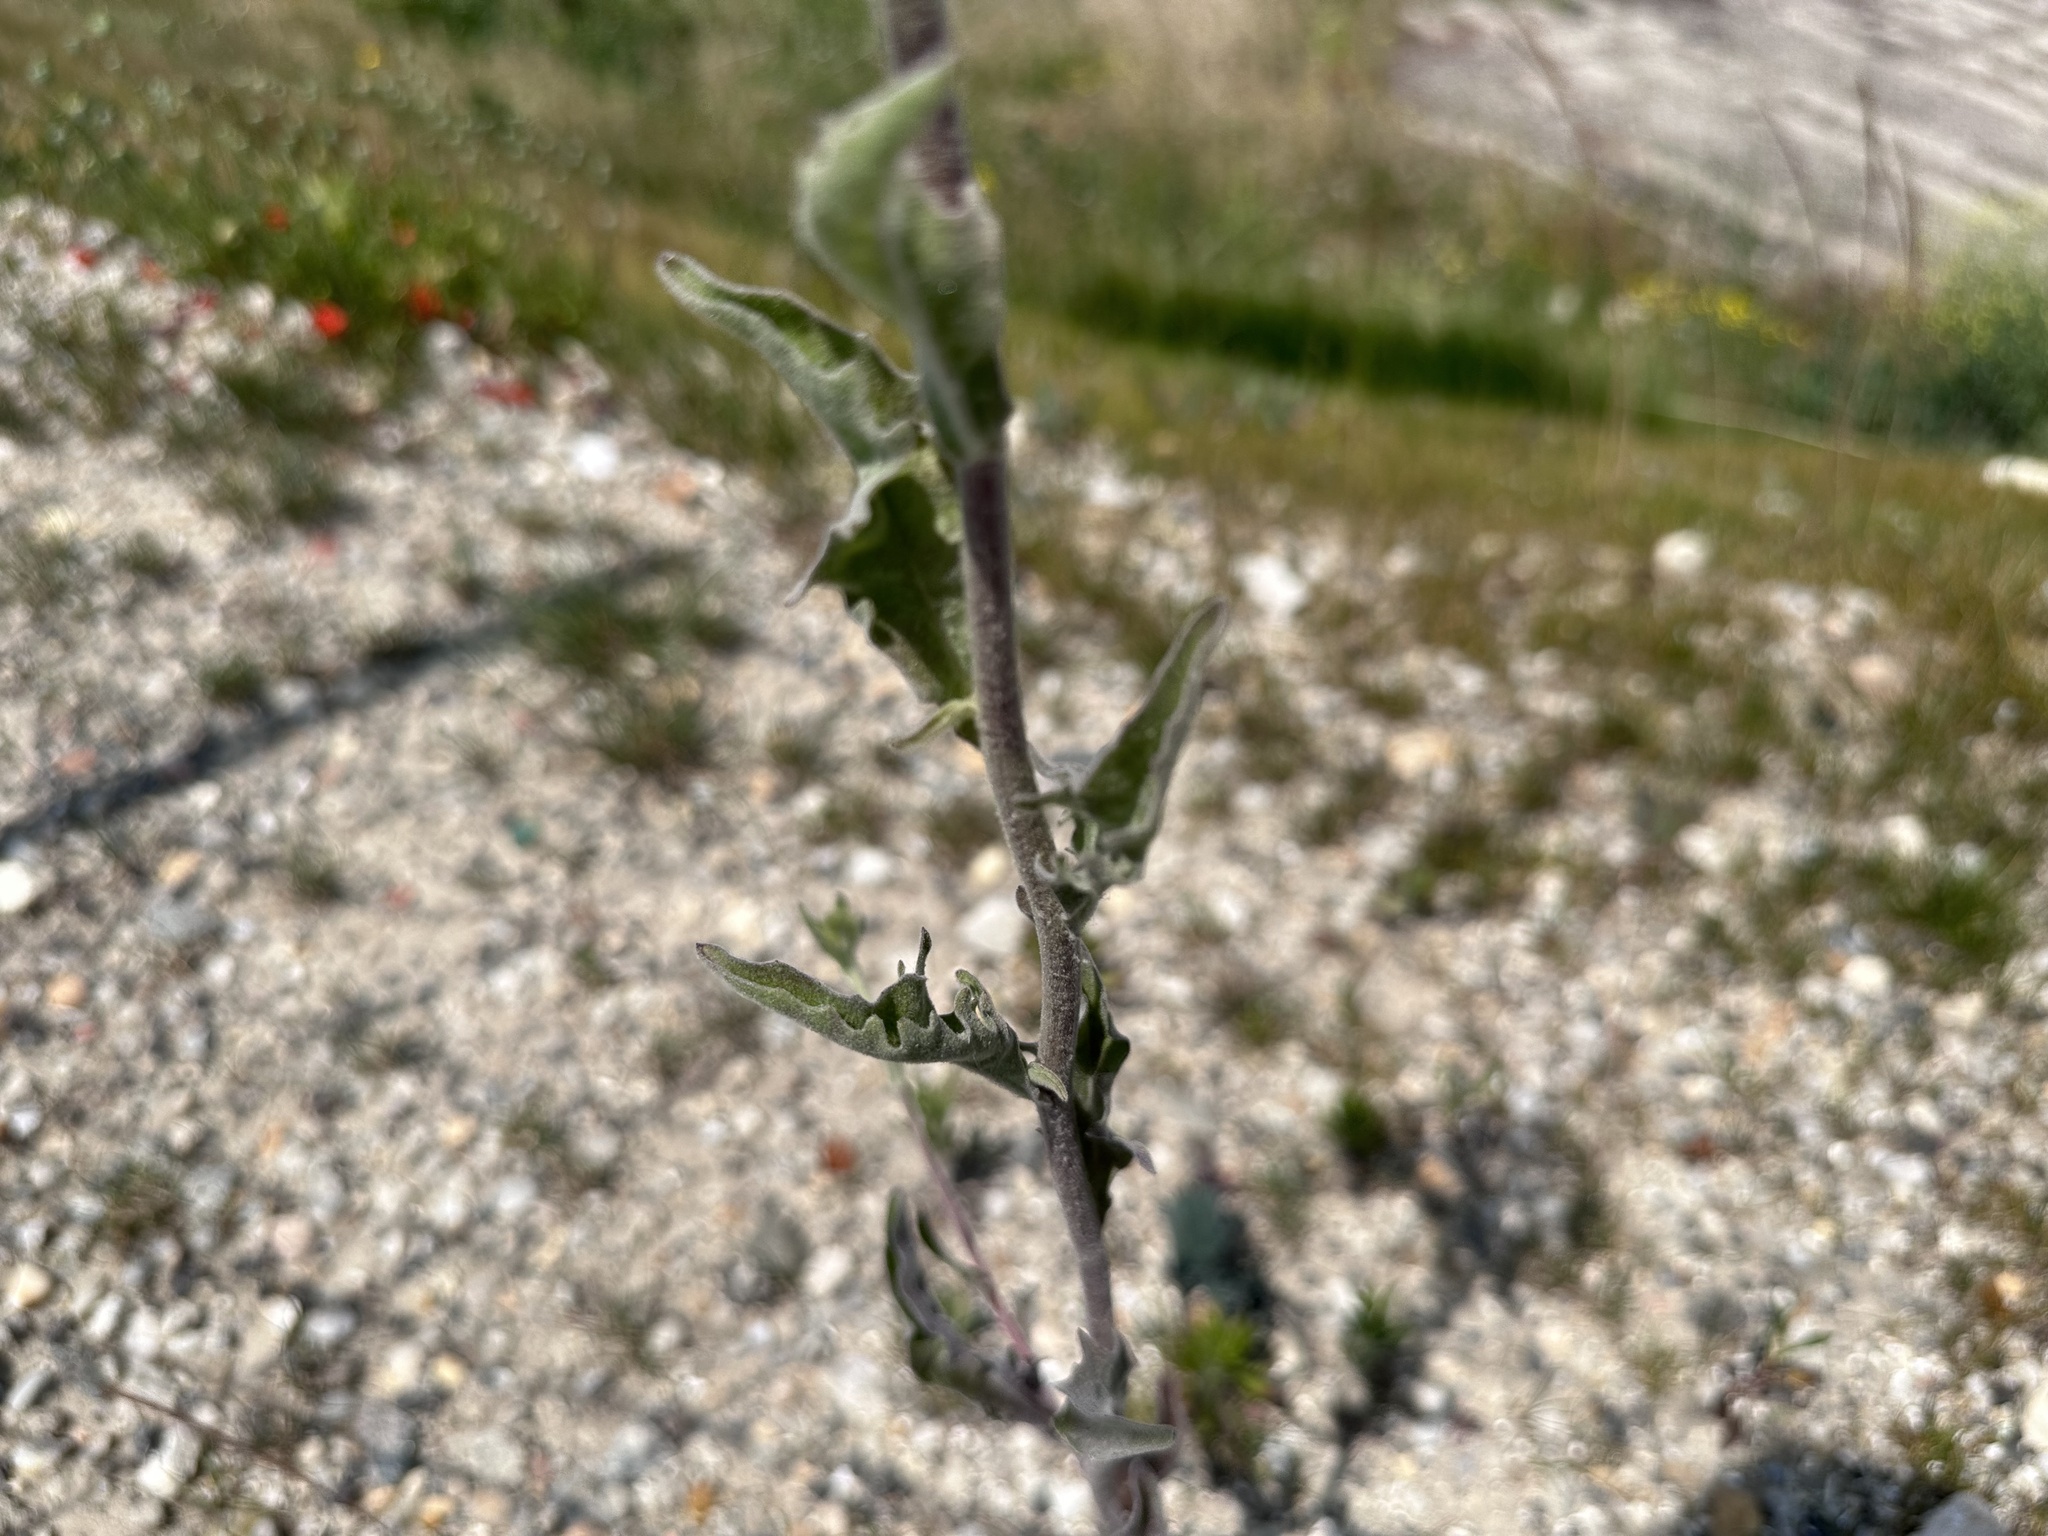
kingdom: Plantae
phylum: Tracheophyta
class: Magnoliopsida
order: Asterales
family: Asteraceae
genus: Andryala
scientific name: Andryala integrifolia
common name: Common andryala
